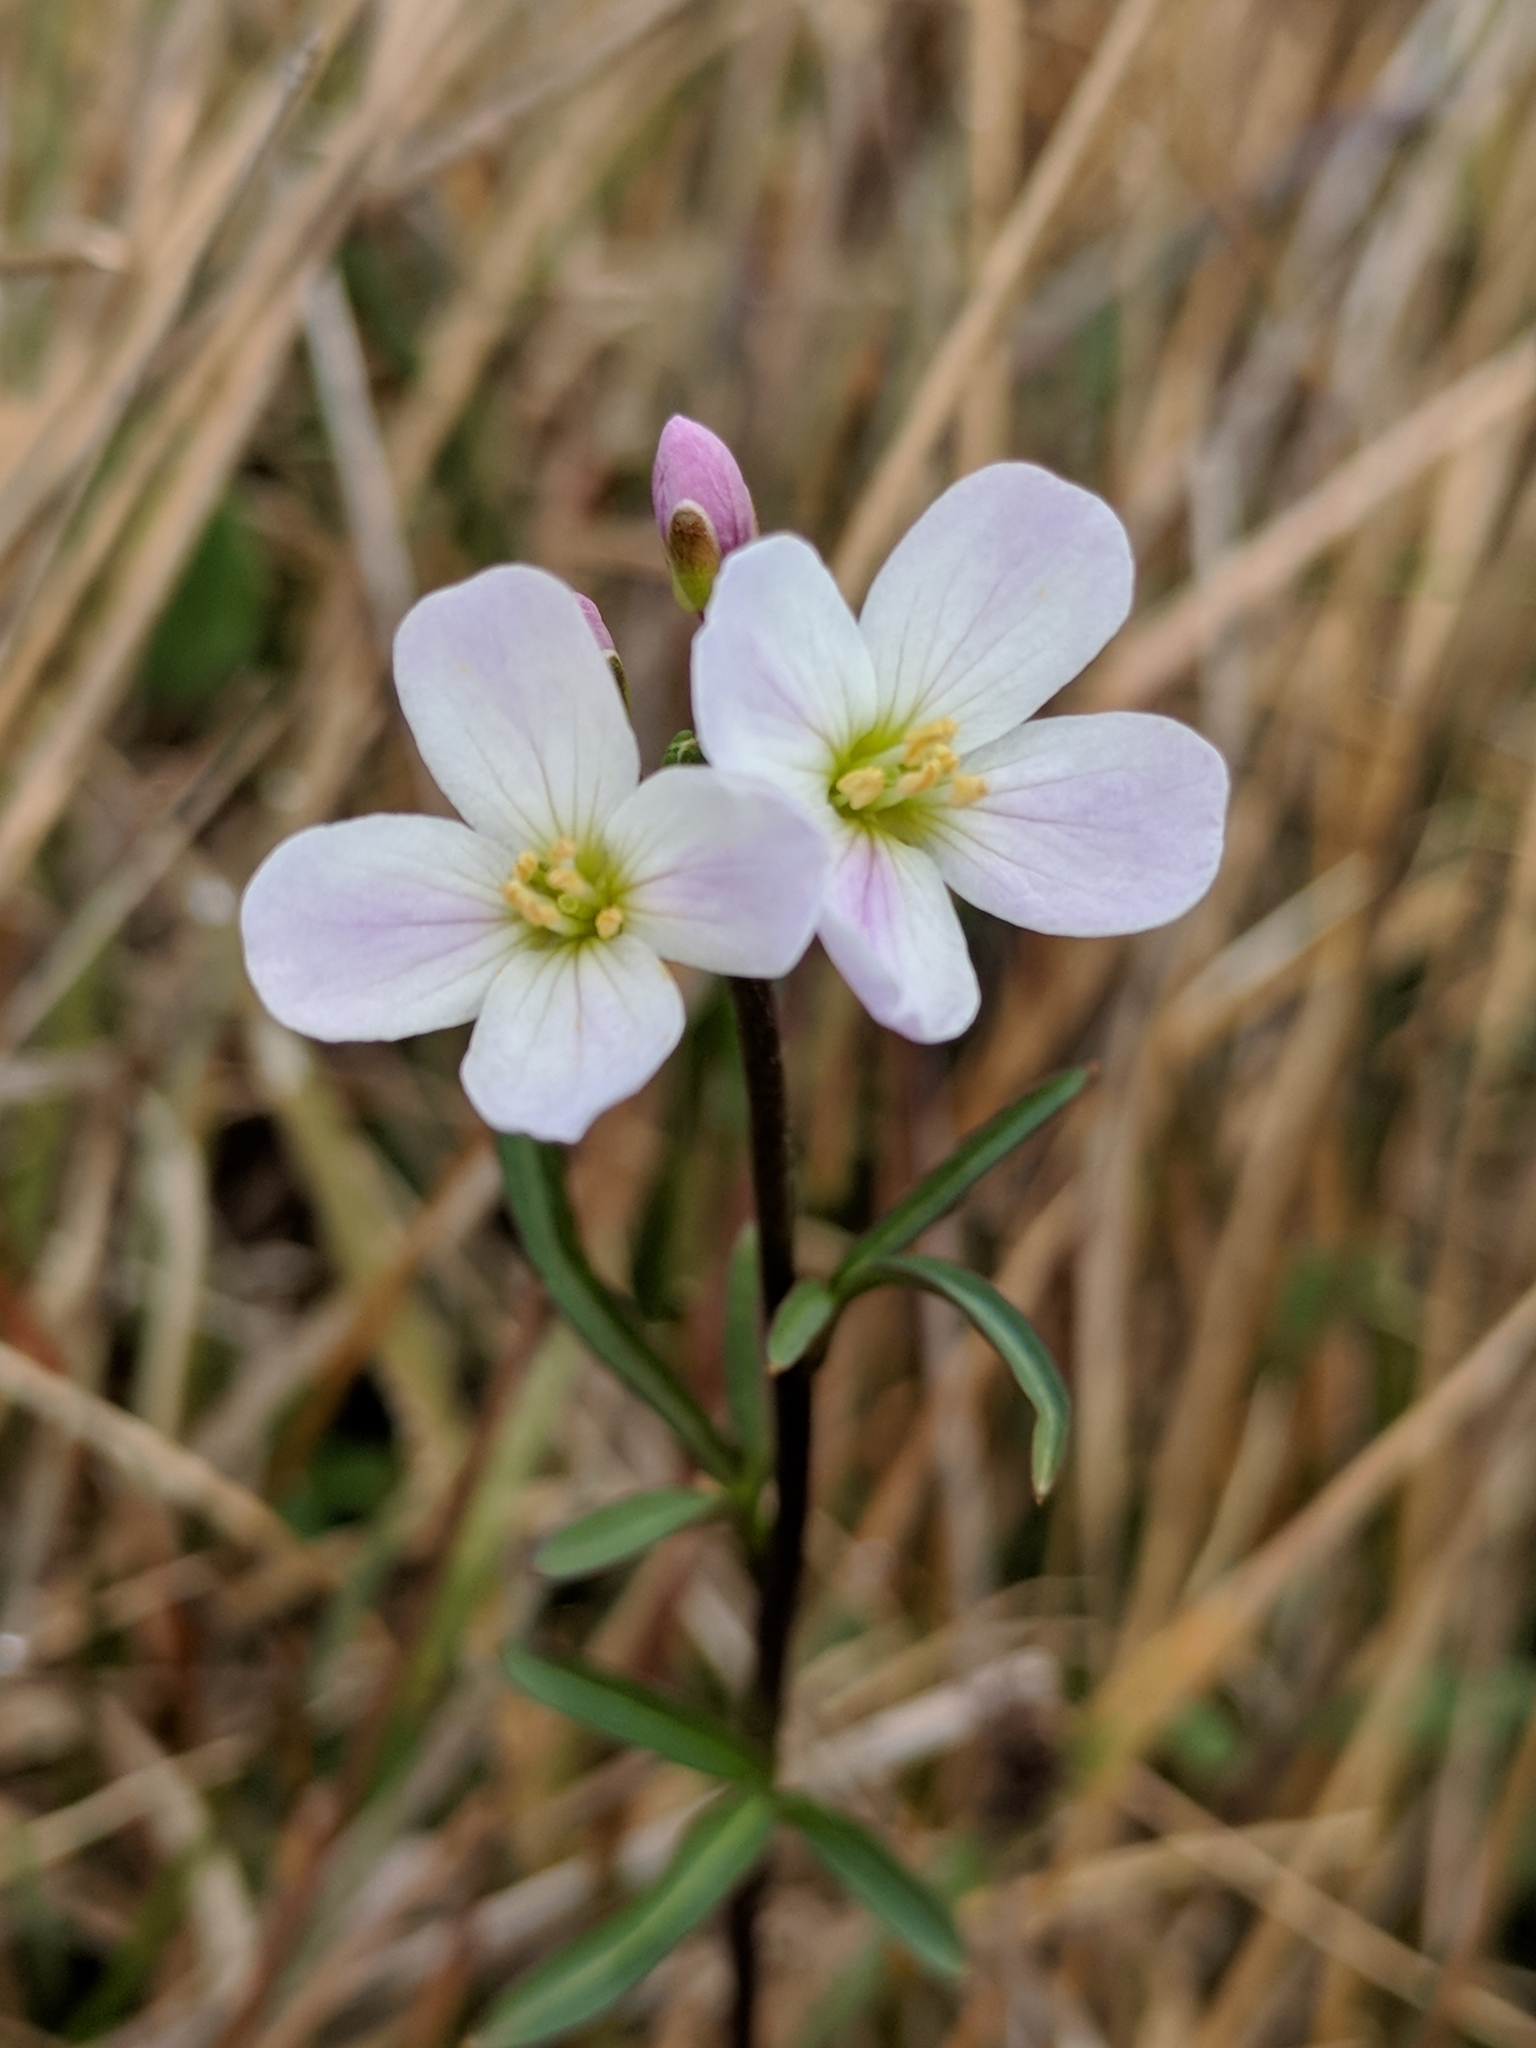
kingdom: Plantae
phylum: Tracheophyta
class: Magnoliopsida
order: Brassicales
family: Brassicaceae
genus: Cardamine
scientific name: Cardamine californica
